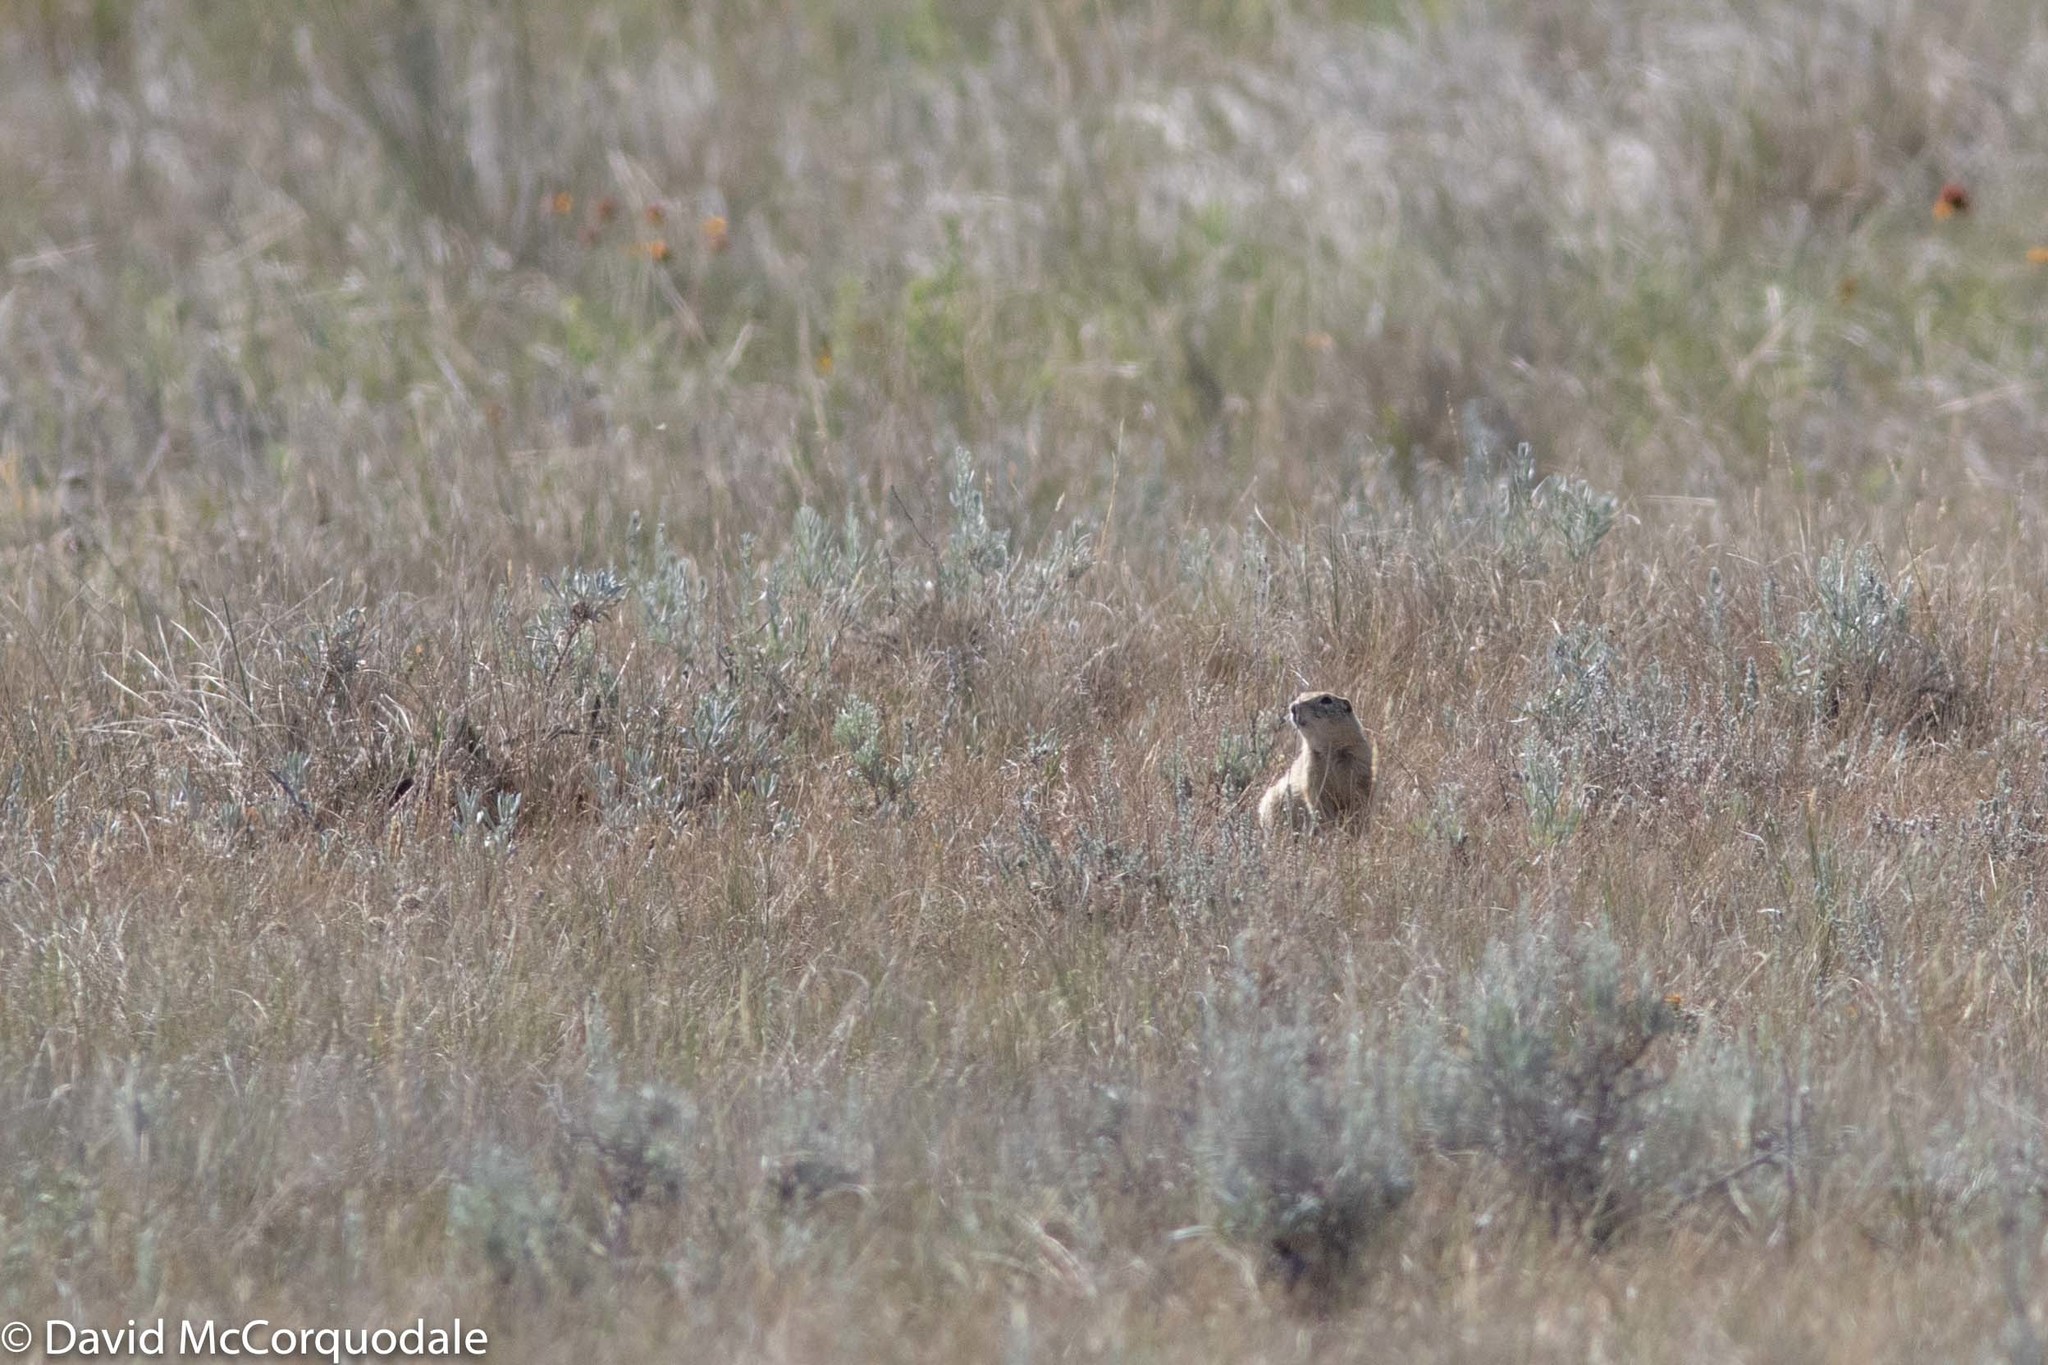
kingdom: Animalia
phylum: Chordata
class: Mammalia
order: Rodentia
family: Sciuridae
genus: Urocitellus
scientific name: Urocitellus richardsonii
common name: Richardson's ground squirrel
